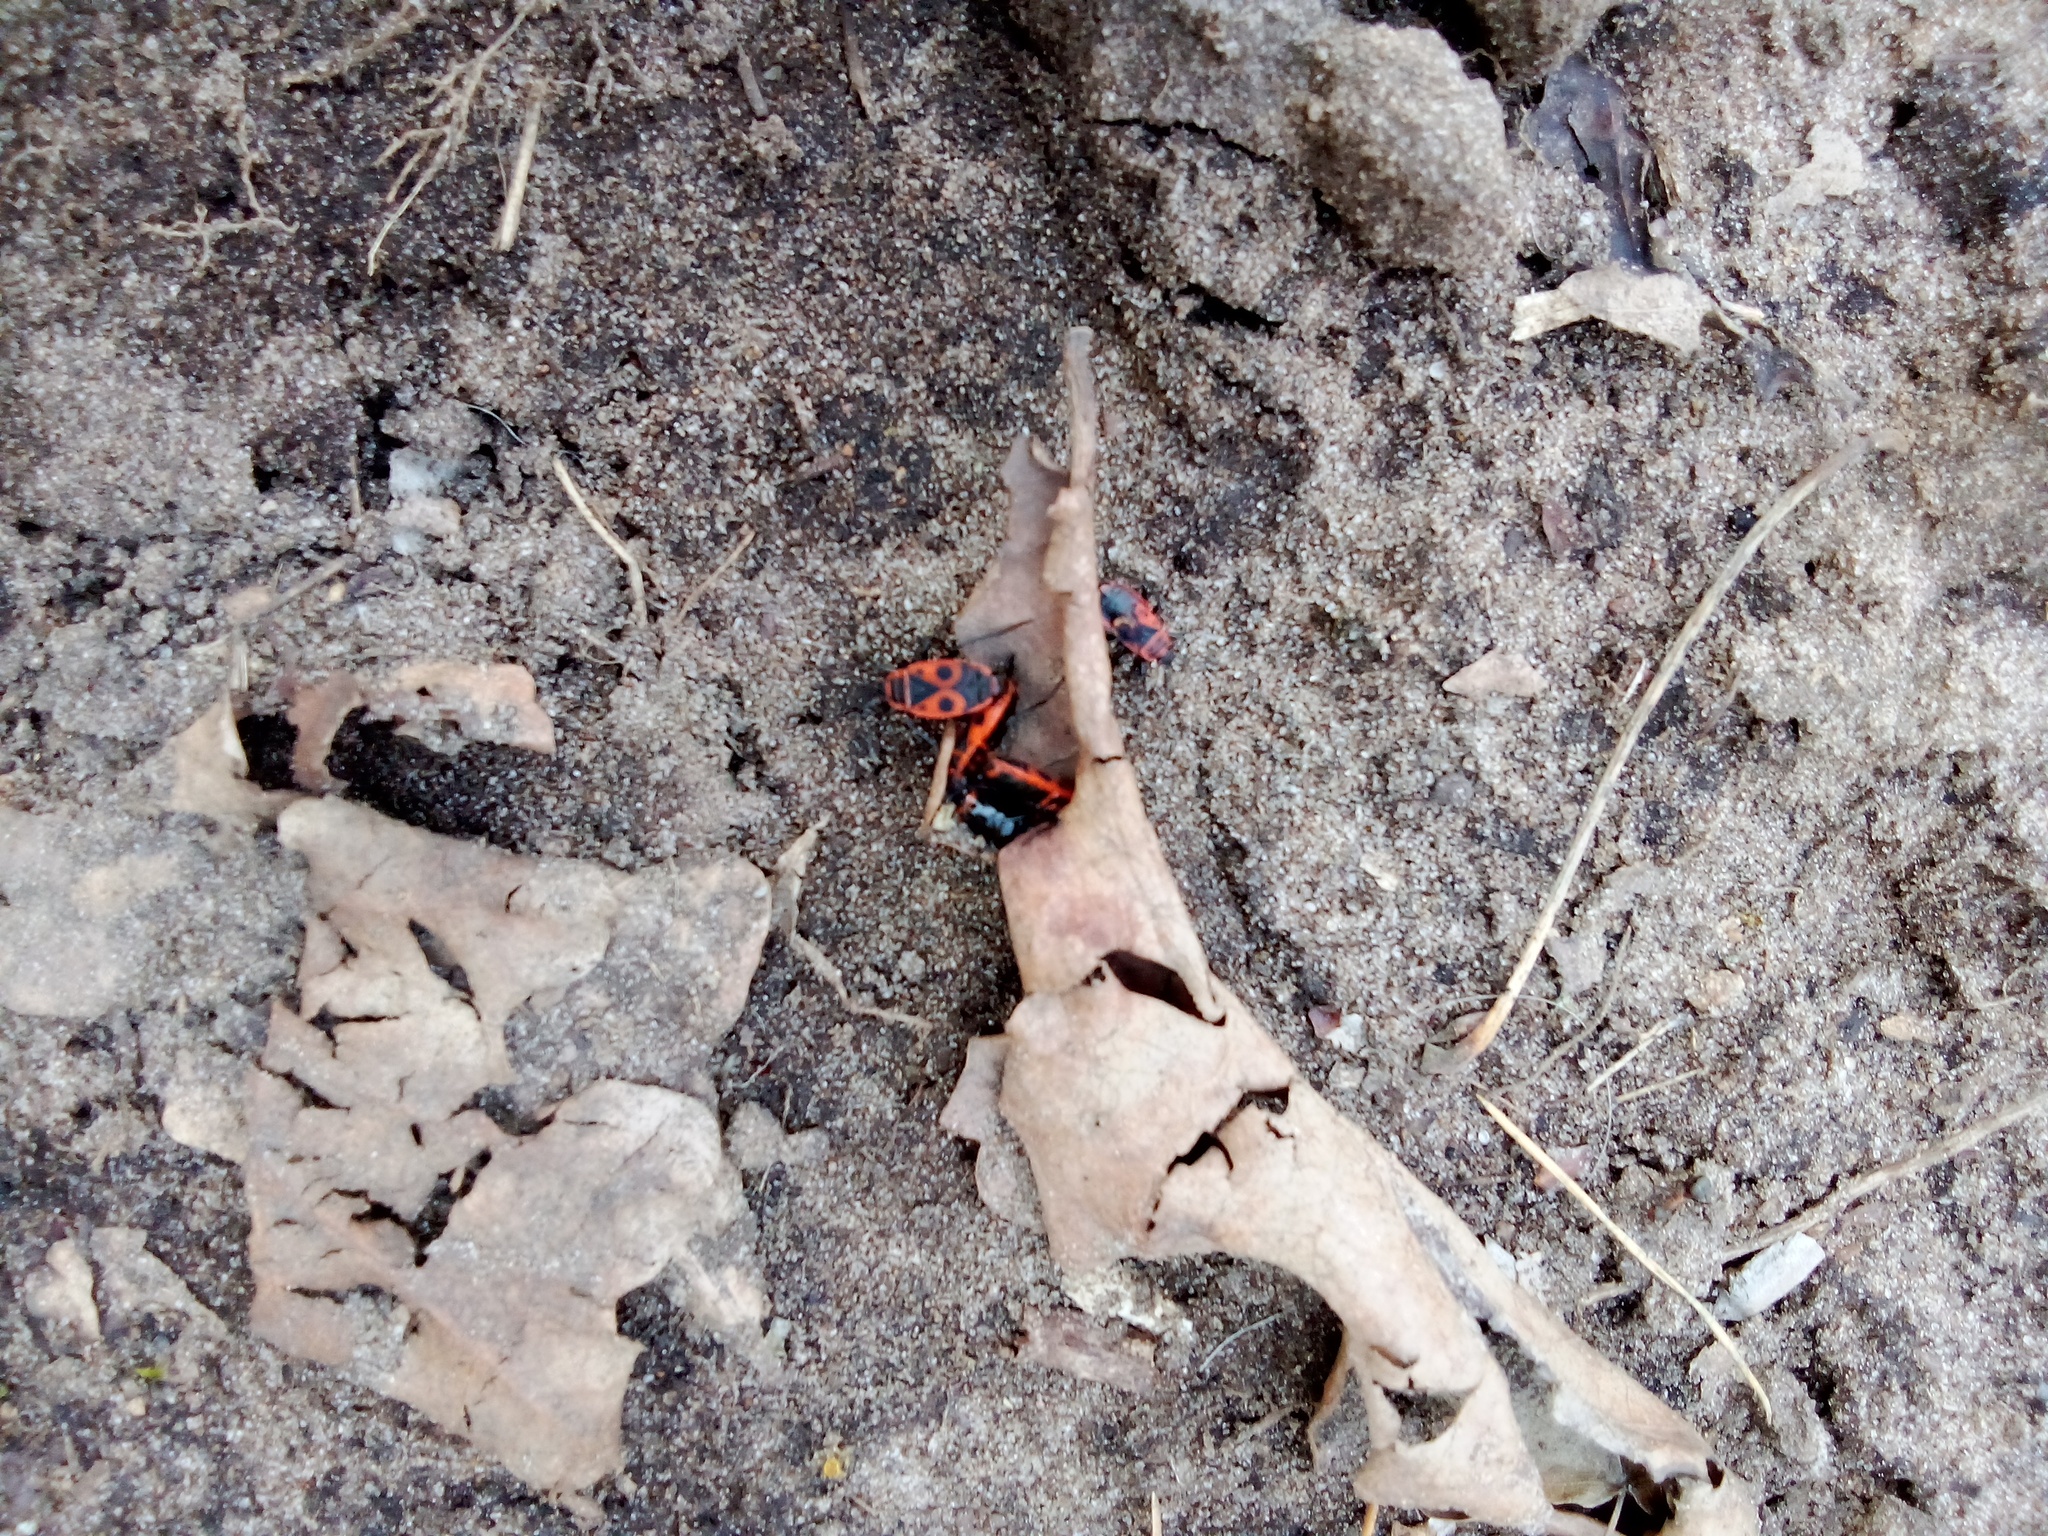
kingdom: Animalia
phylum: Arthropoda
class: Insecta
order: Hemiptera
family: Pyrrhocoridae
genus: Pyrrhocoris
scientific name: Pyrrhocoris apterus
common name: Firebug
